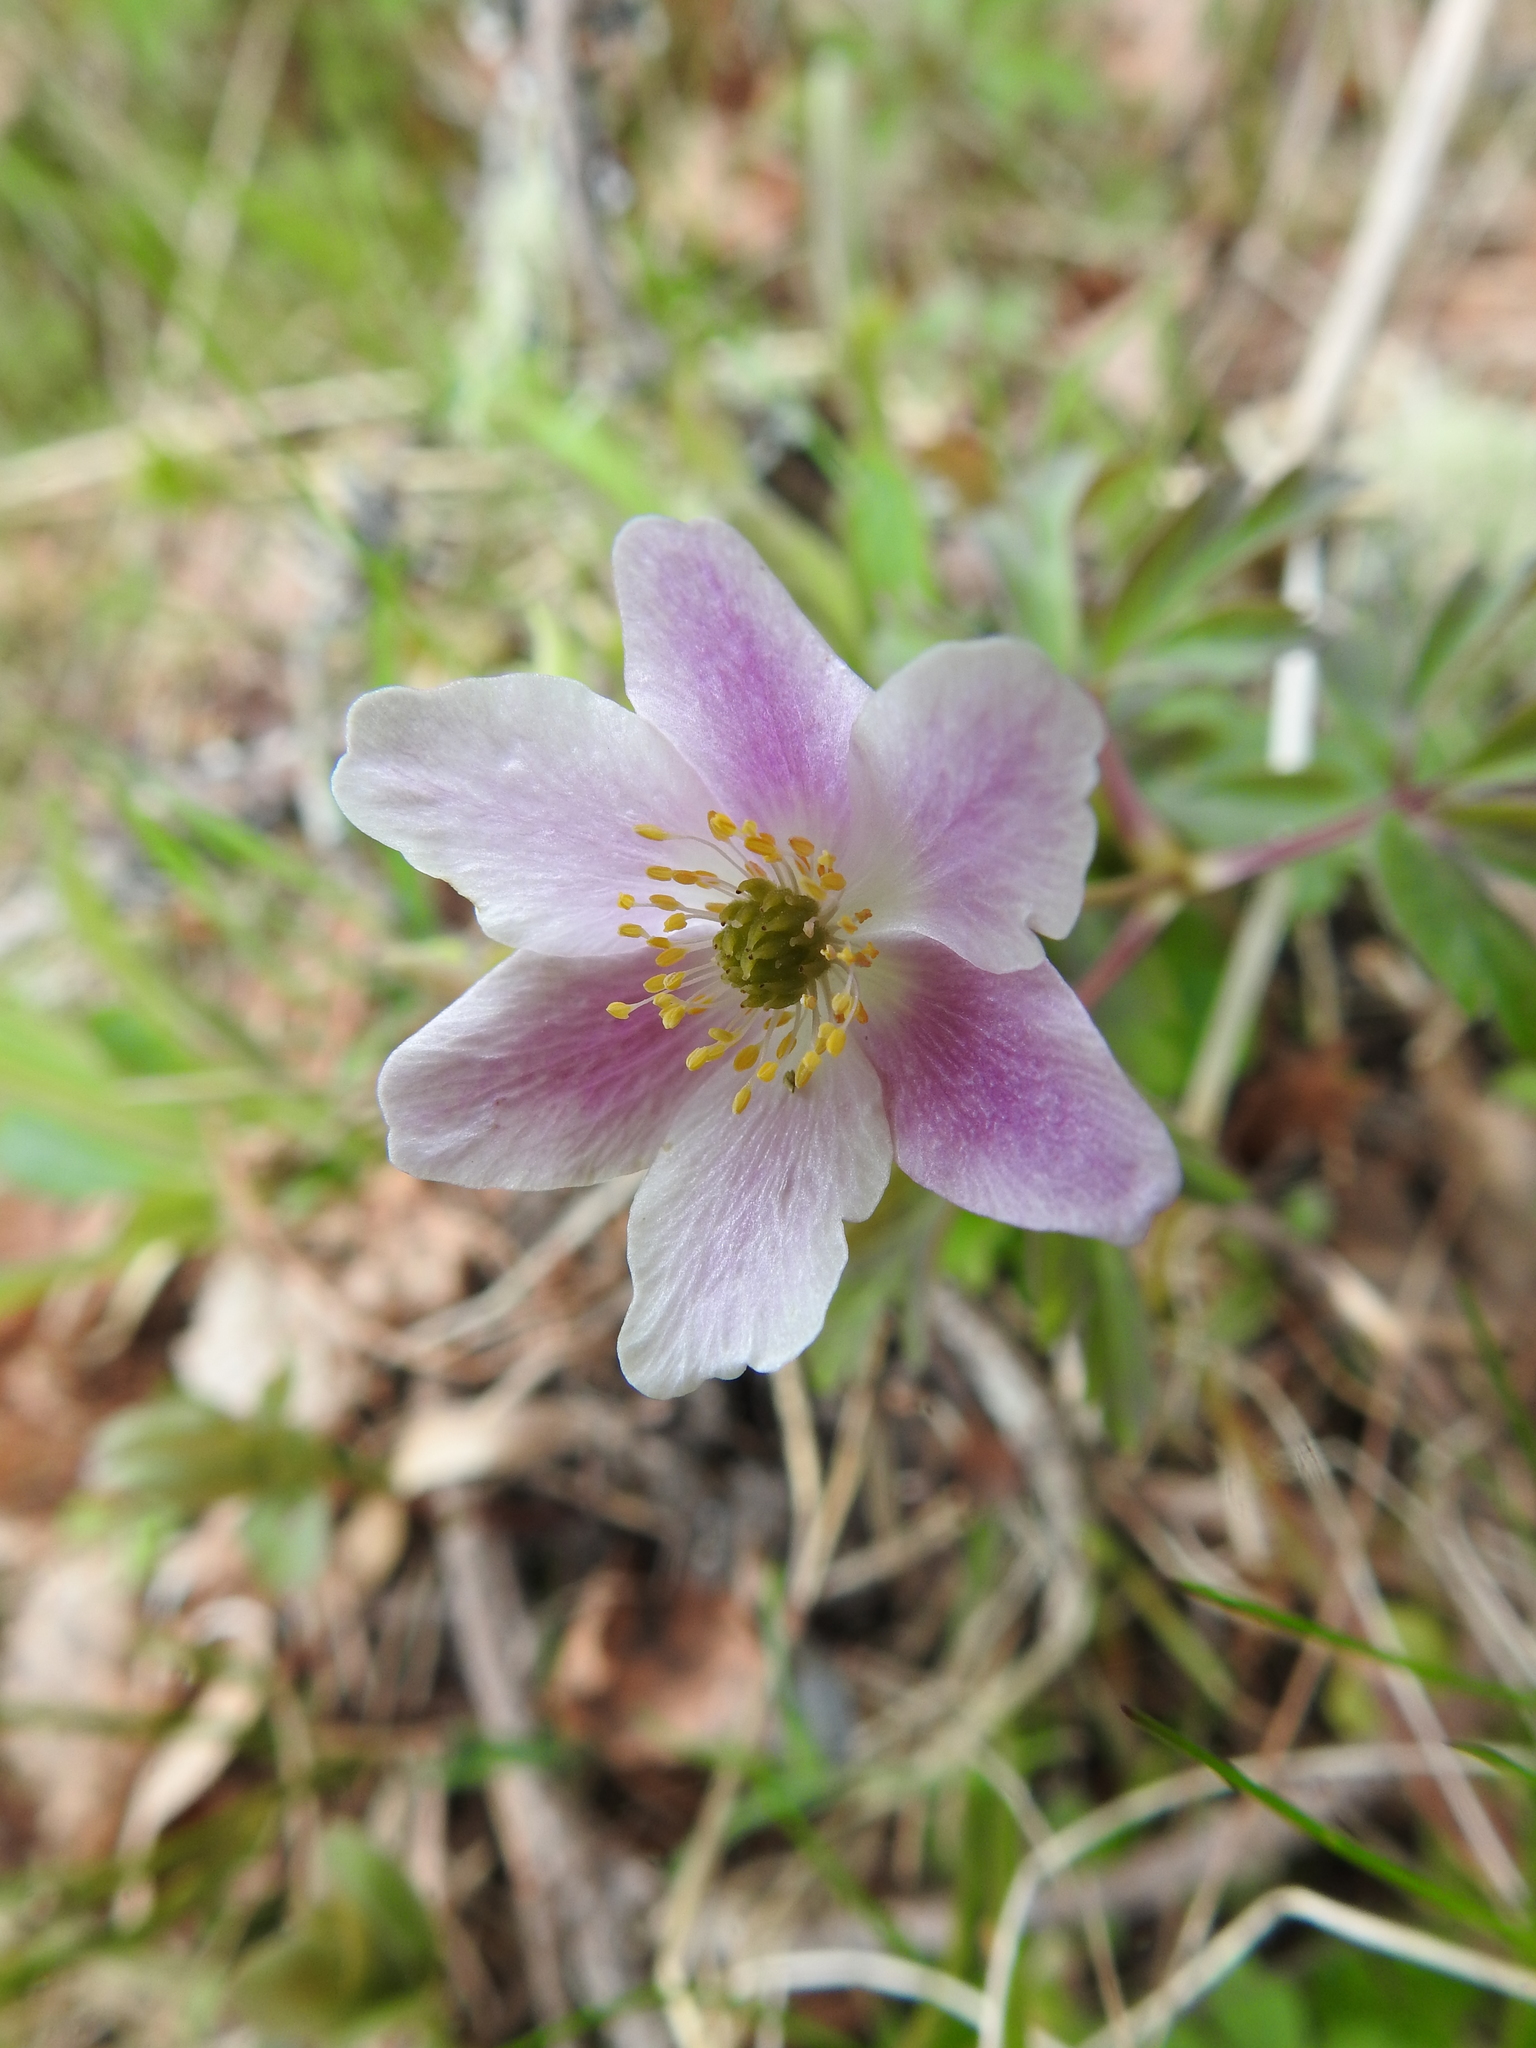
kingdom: Plantae
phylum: Tracheophyta
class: Magnoliopsida
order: Ranunculales
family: Ranunculaceae
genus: Anemone
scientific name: Anemone nemorosa
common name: Wood anemone
